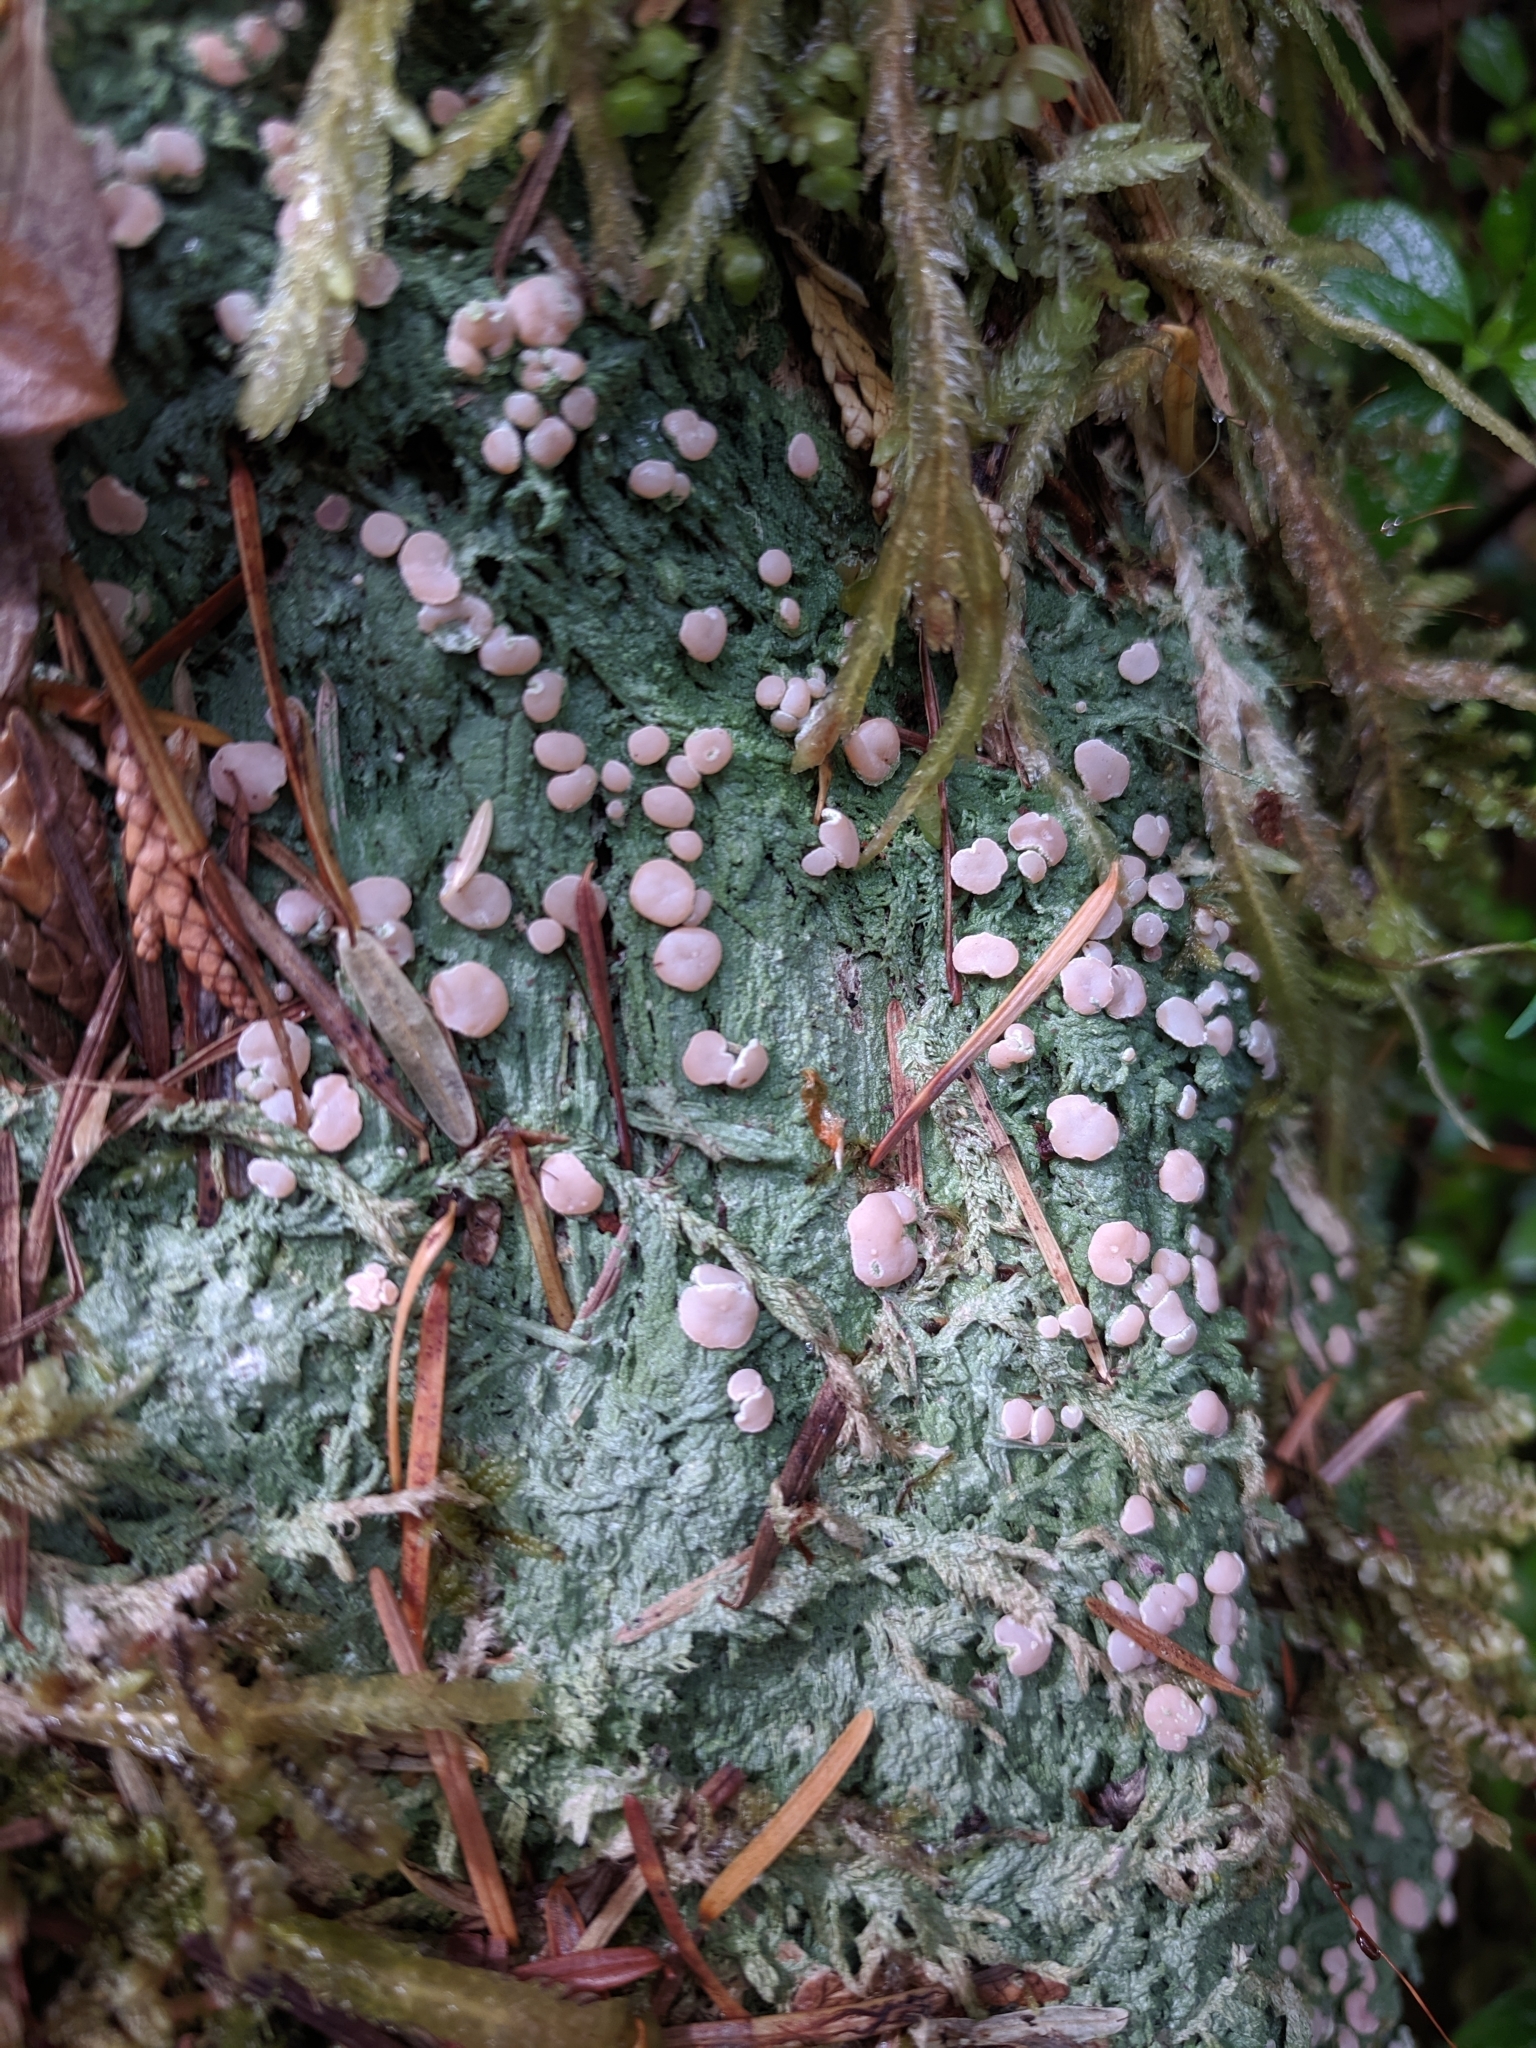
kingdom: Fungi
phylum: Ascomycota
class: Lecanoromycetes
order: Pertusariales
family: Icmadophilaceae
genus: Icmadophila
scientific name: Icmadophila ericetorum
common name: Candy lichen
